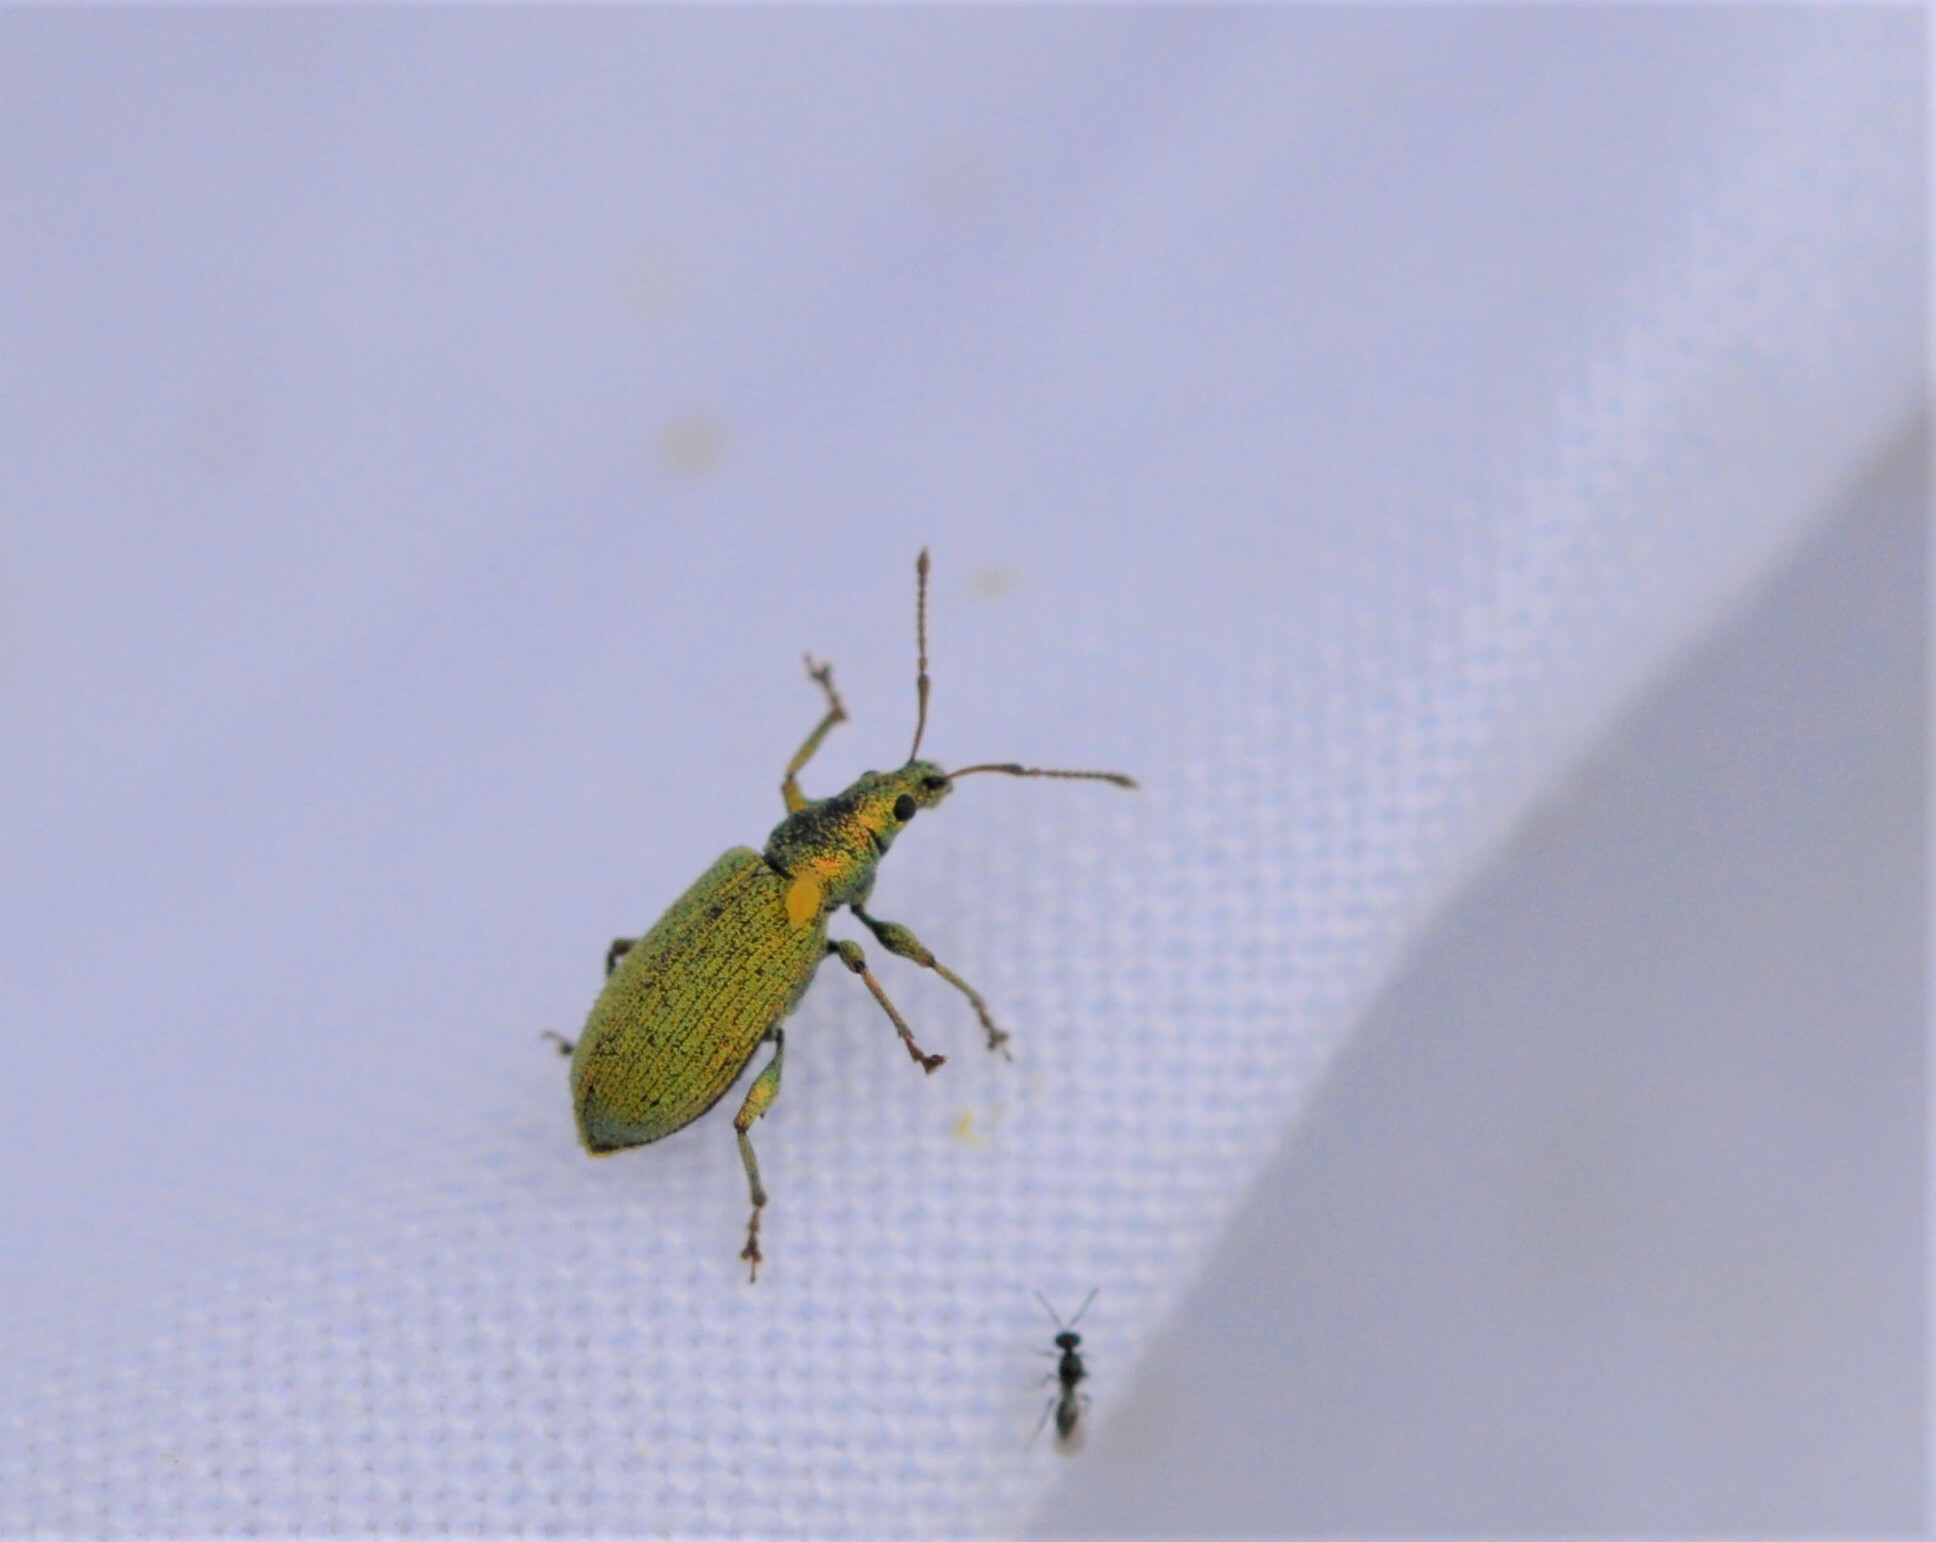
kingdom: Animalia
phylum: Arthropoda
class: Insecta
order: Coleoptera
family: Curculionidae
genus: Phyllobius
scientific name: Phyllobius maculicornis
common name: Green leaf weevil
